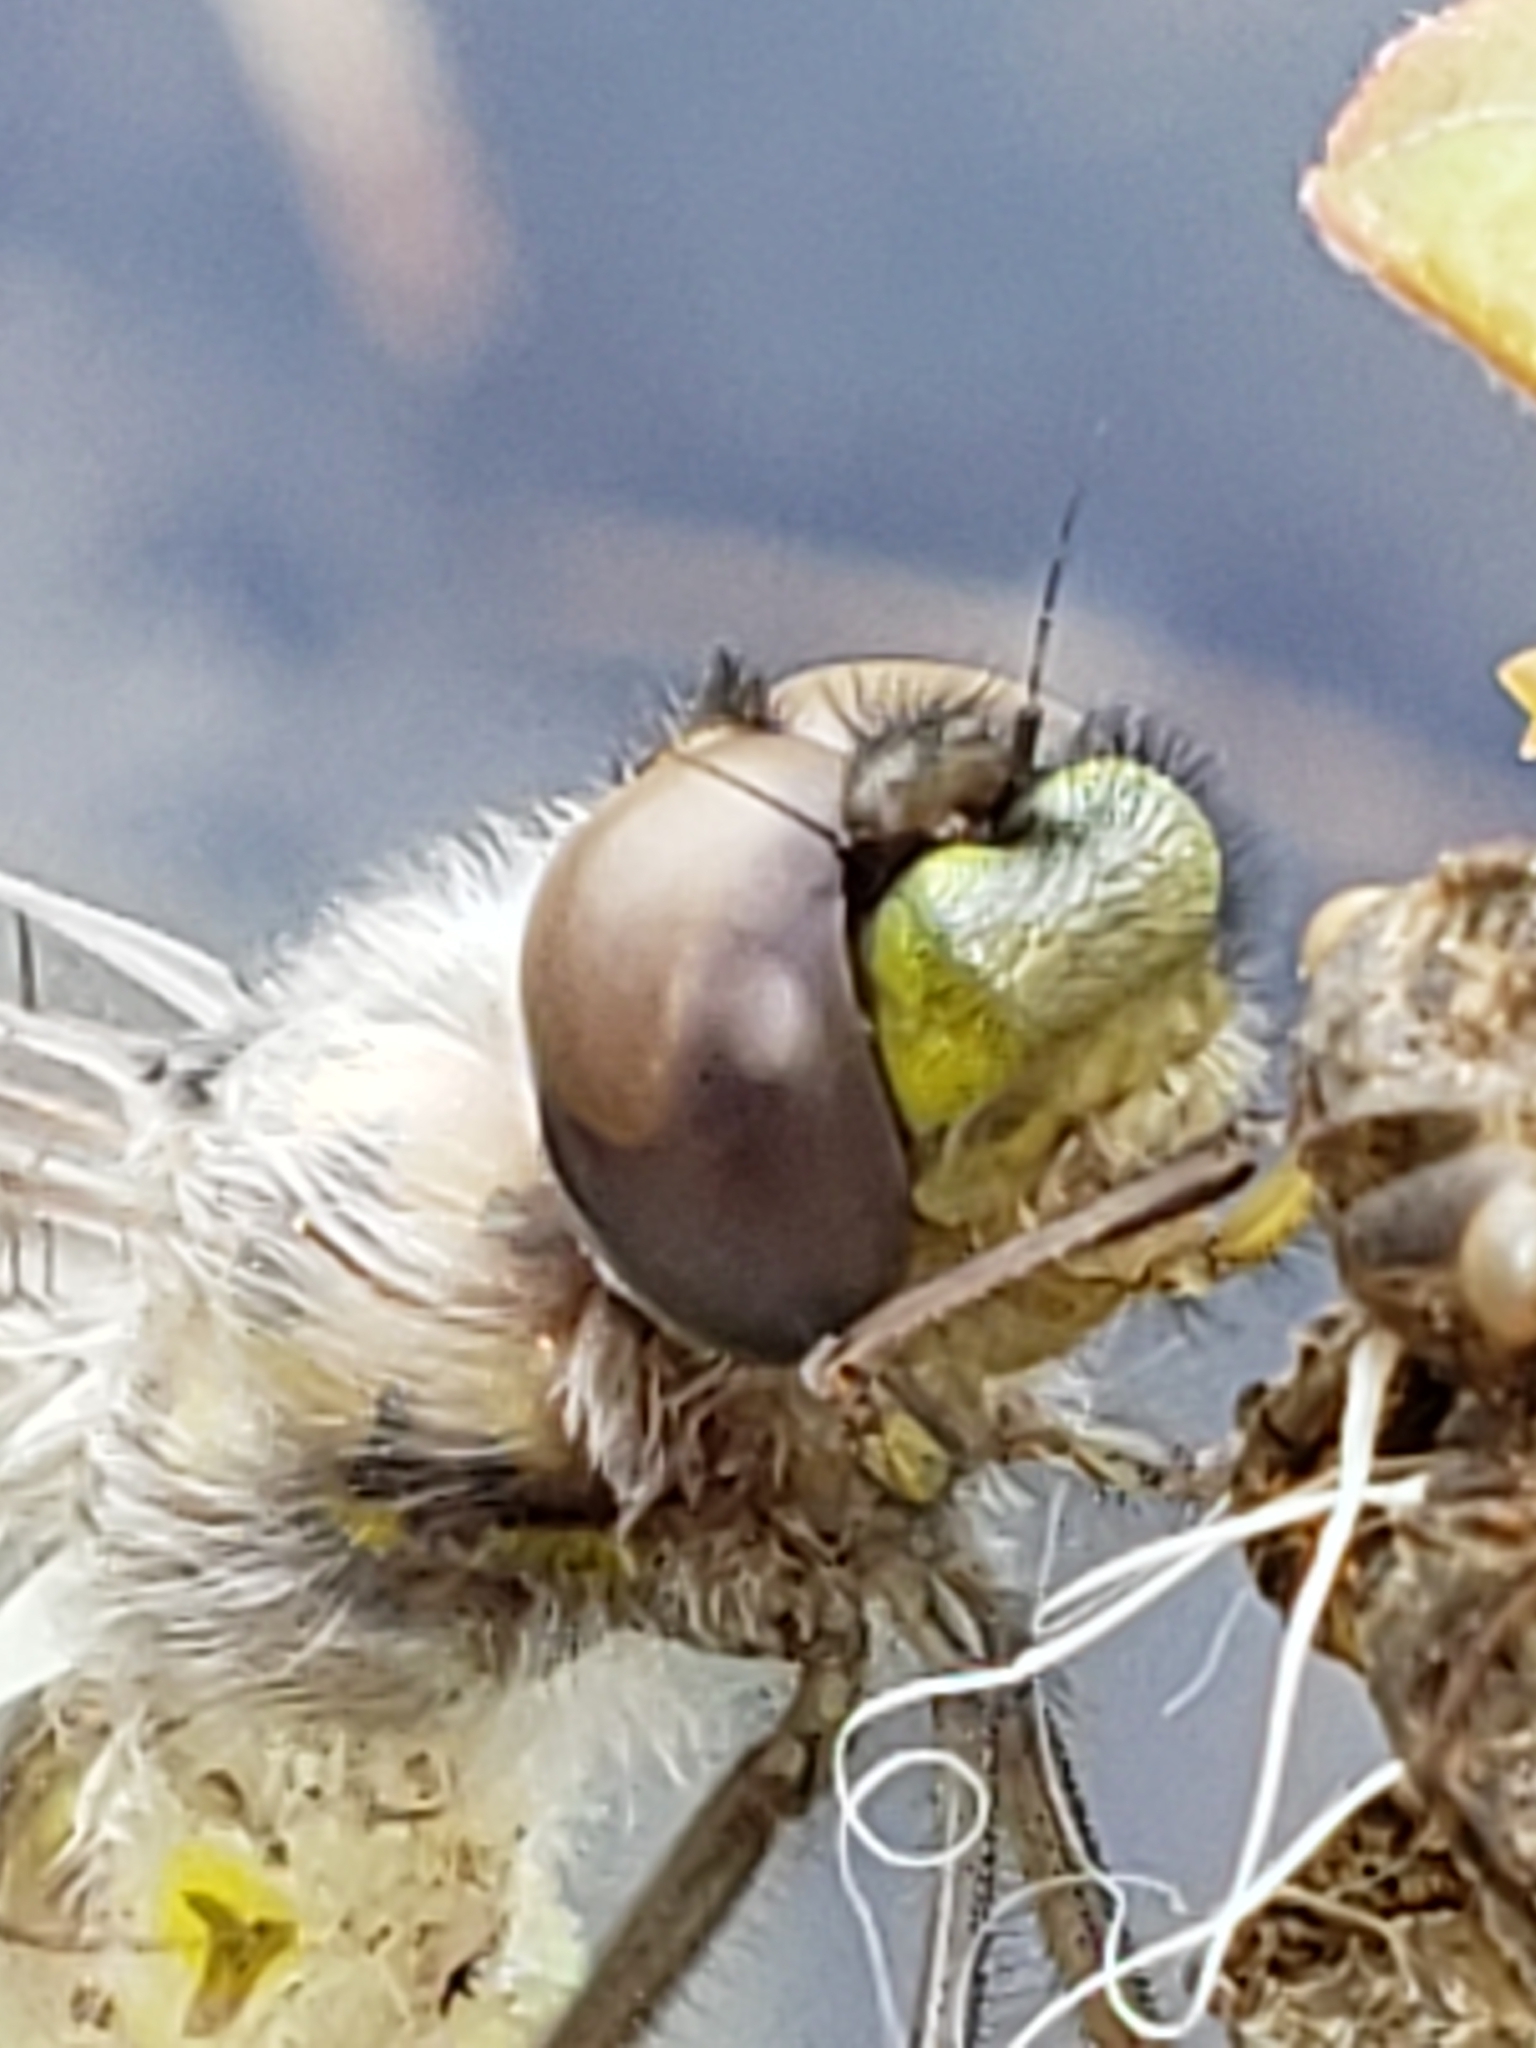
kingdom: Animalia
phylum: Arthropoda
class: Insecta
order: Odonata
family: Corduliidae
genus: Epitheca
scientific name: Epitheca cynosura
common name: Common baskettail
